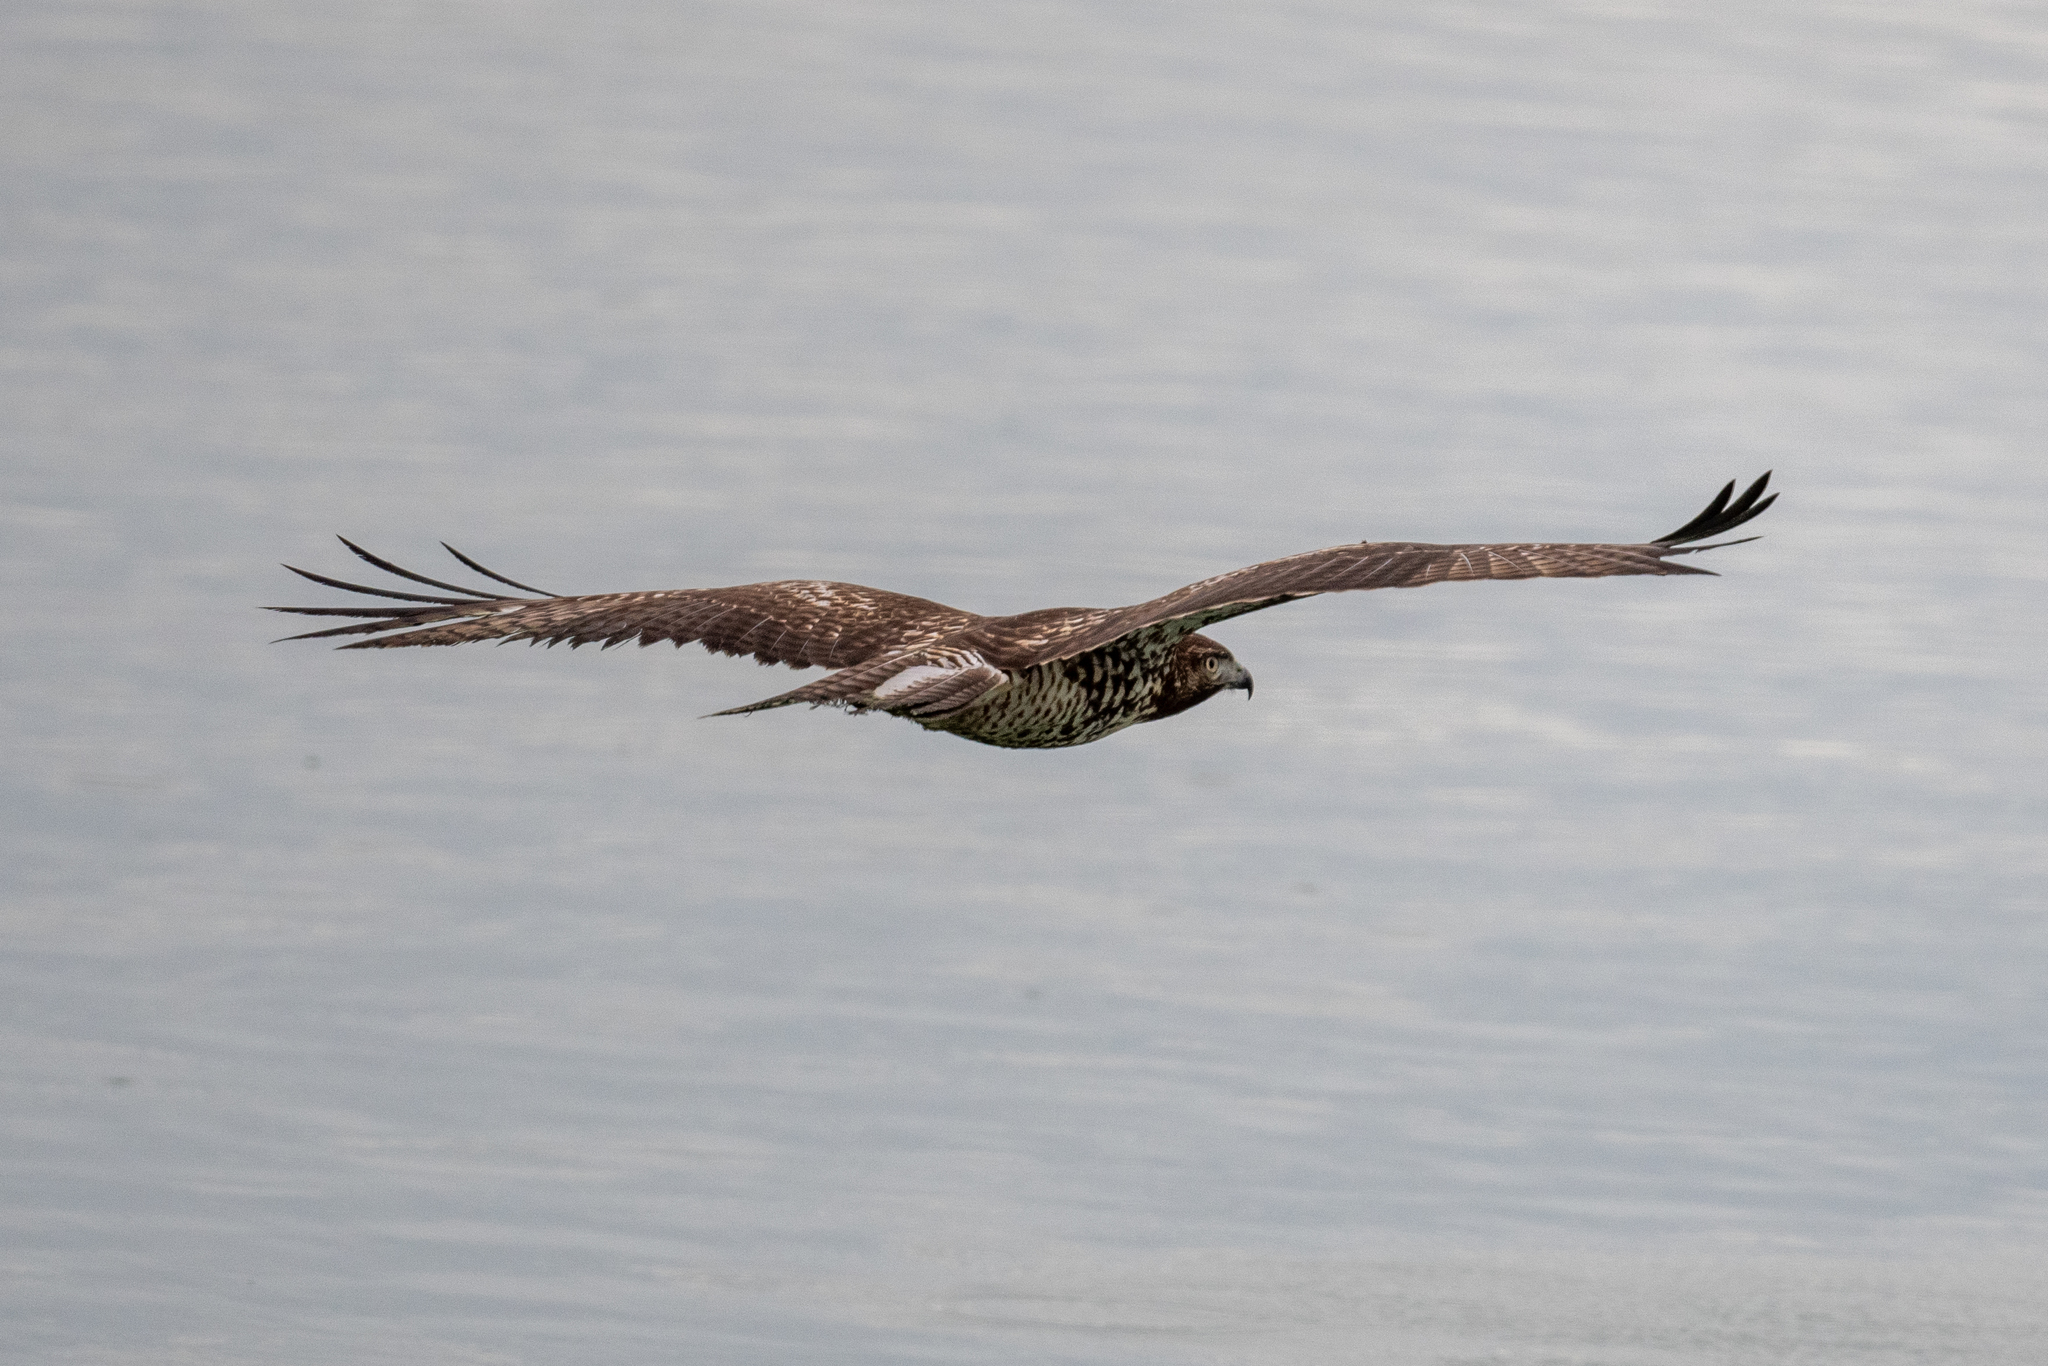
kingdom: Animalia
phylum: Chordata
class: Aves
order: Accipitriformes
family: Accipitridae
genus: Buteo
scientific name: Buteo jamaicensis
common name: Red-tailed hawk
